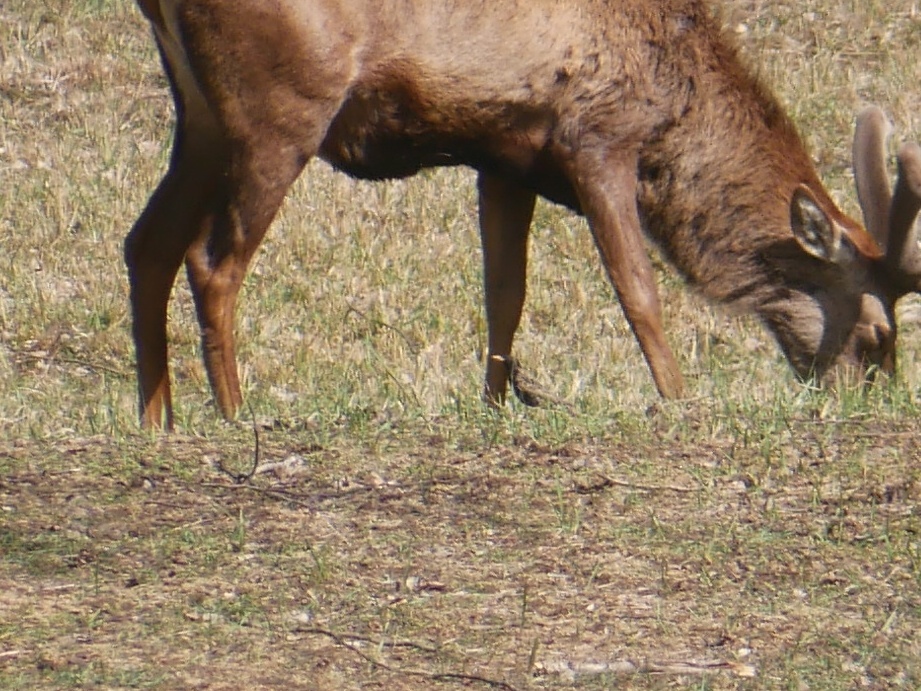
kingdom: Animalia
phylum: Chordata
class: Aves
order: Passeriformes
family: Sturnidae
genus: Sturnus
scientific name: Sturnus vulgaris
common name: Common starling
